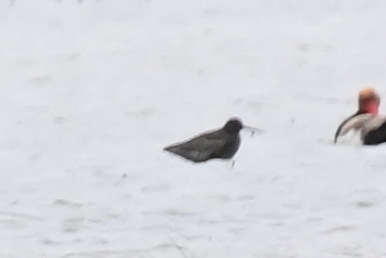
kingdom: Animalia
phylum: Chordata
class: Aves
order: Charadriiformes
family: Scolopacidae
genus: Tringa
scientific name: Tringa erythropus
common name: Spotted redshank
